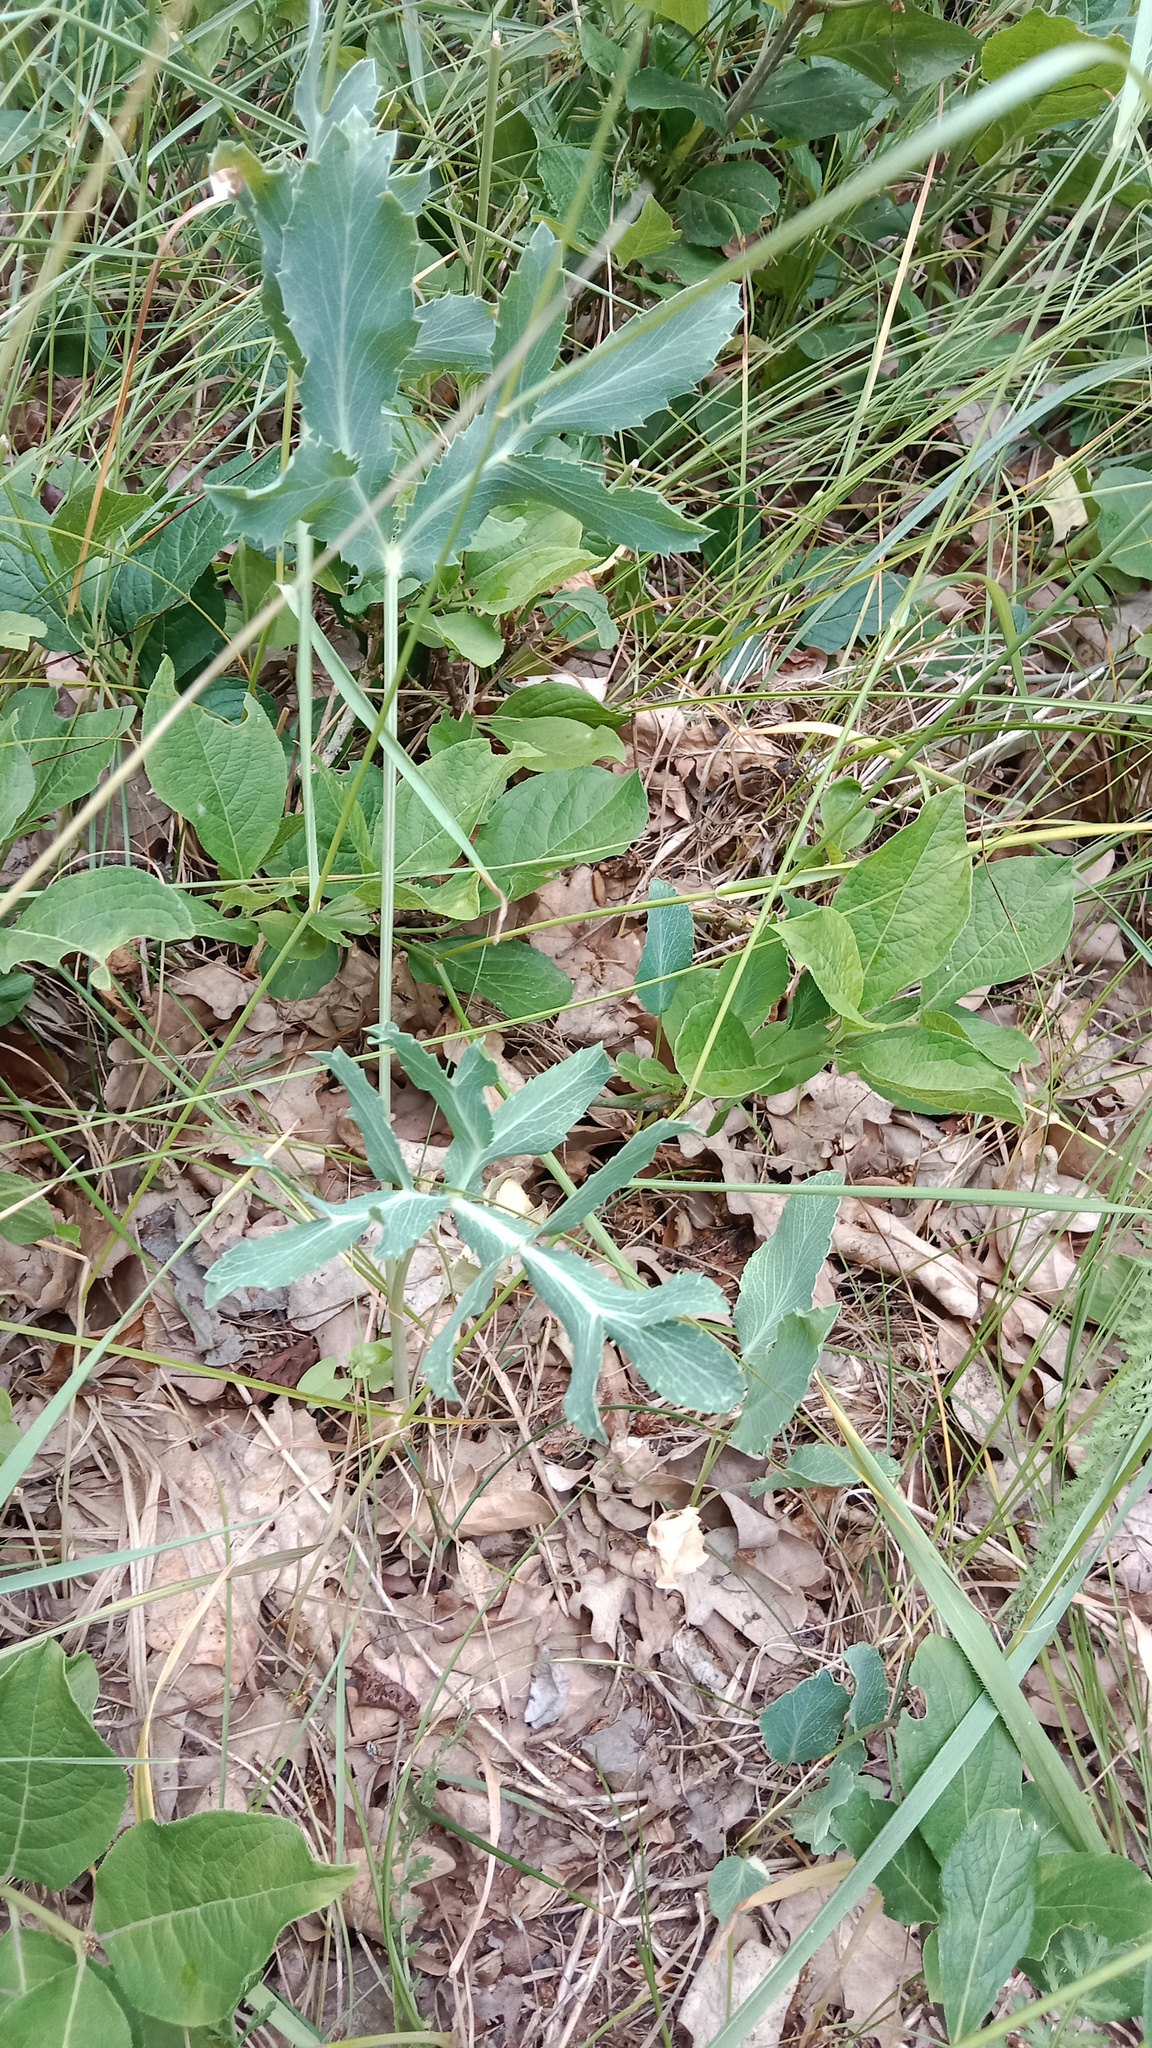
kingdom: Plantae
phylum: Tracheophyta
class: Magnoliopsida
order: Apiales
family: Apiaceae
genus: Eryngium
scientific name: Eryngium campestre
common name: Field eryngo
